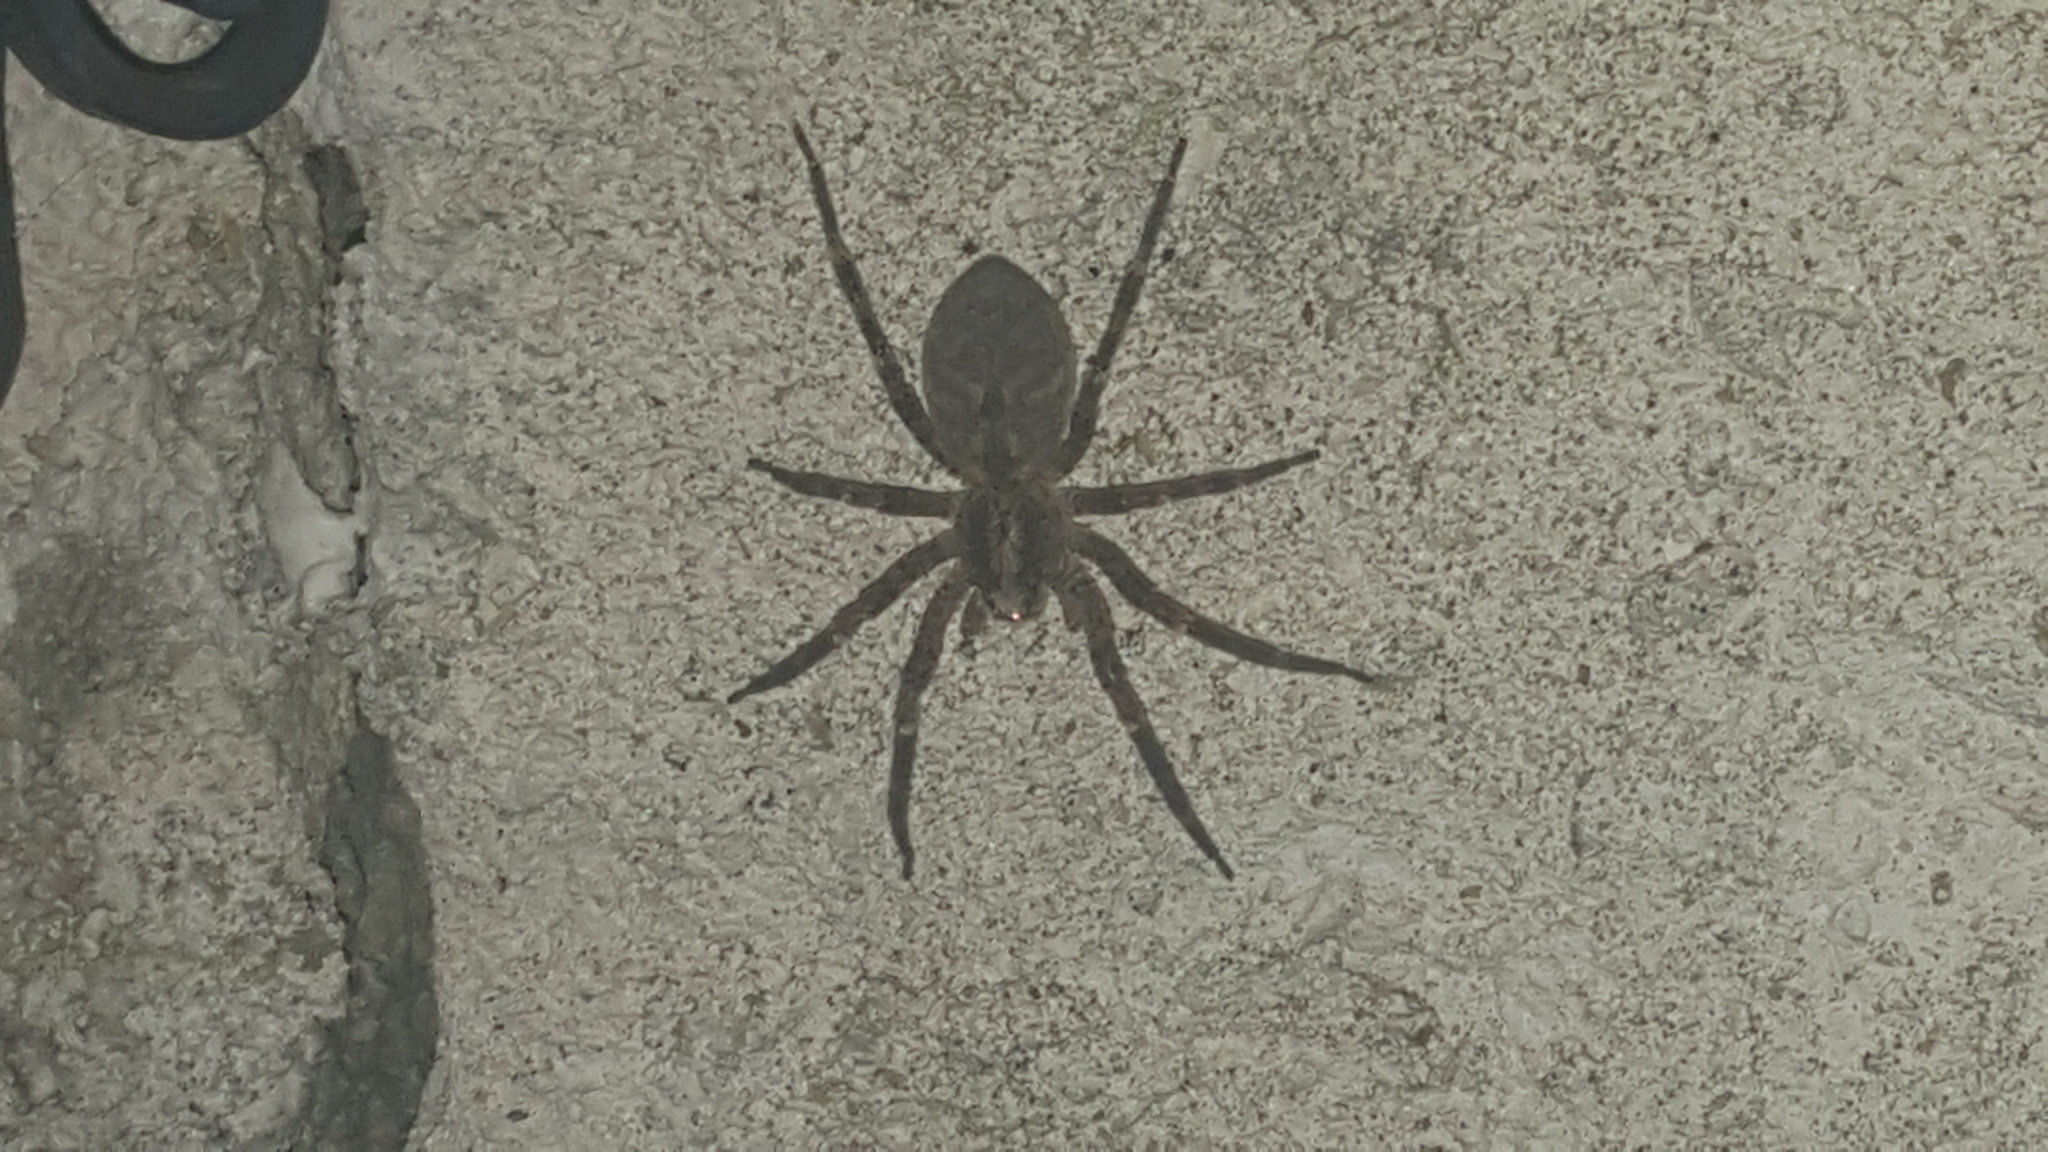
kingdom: Animalia
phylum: Arthropoda
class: Arachnida
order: Araneae
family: Zoropsidae
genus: Zoropsis
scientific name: Zoropsis spinimana
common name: Zoropsid spider
